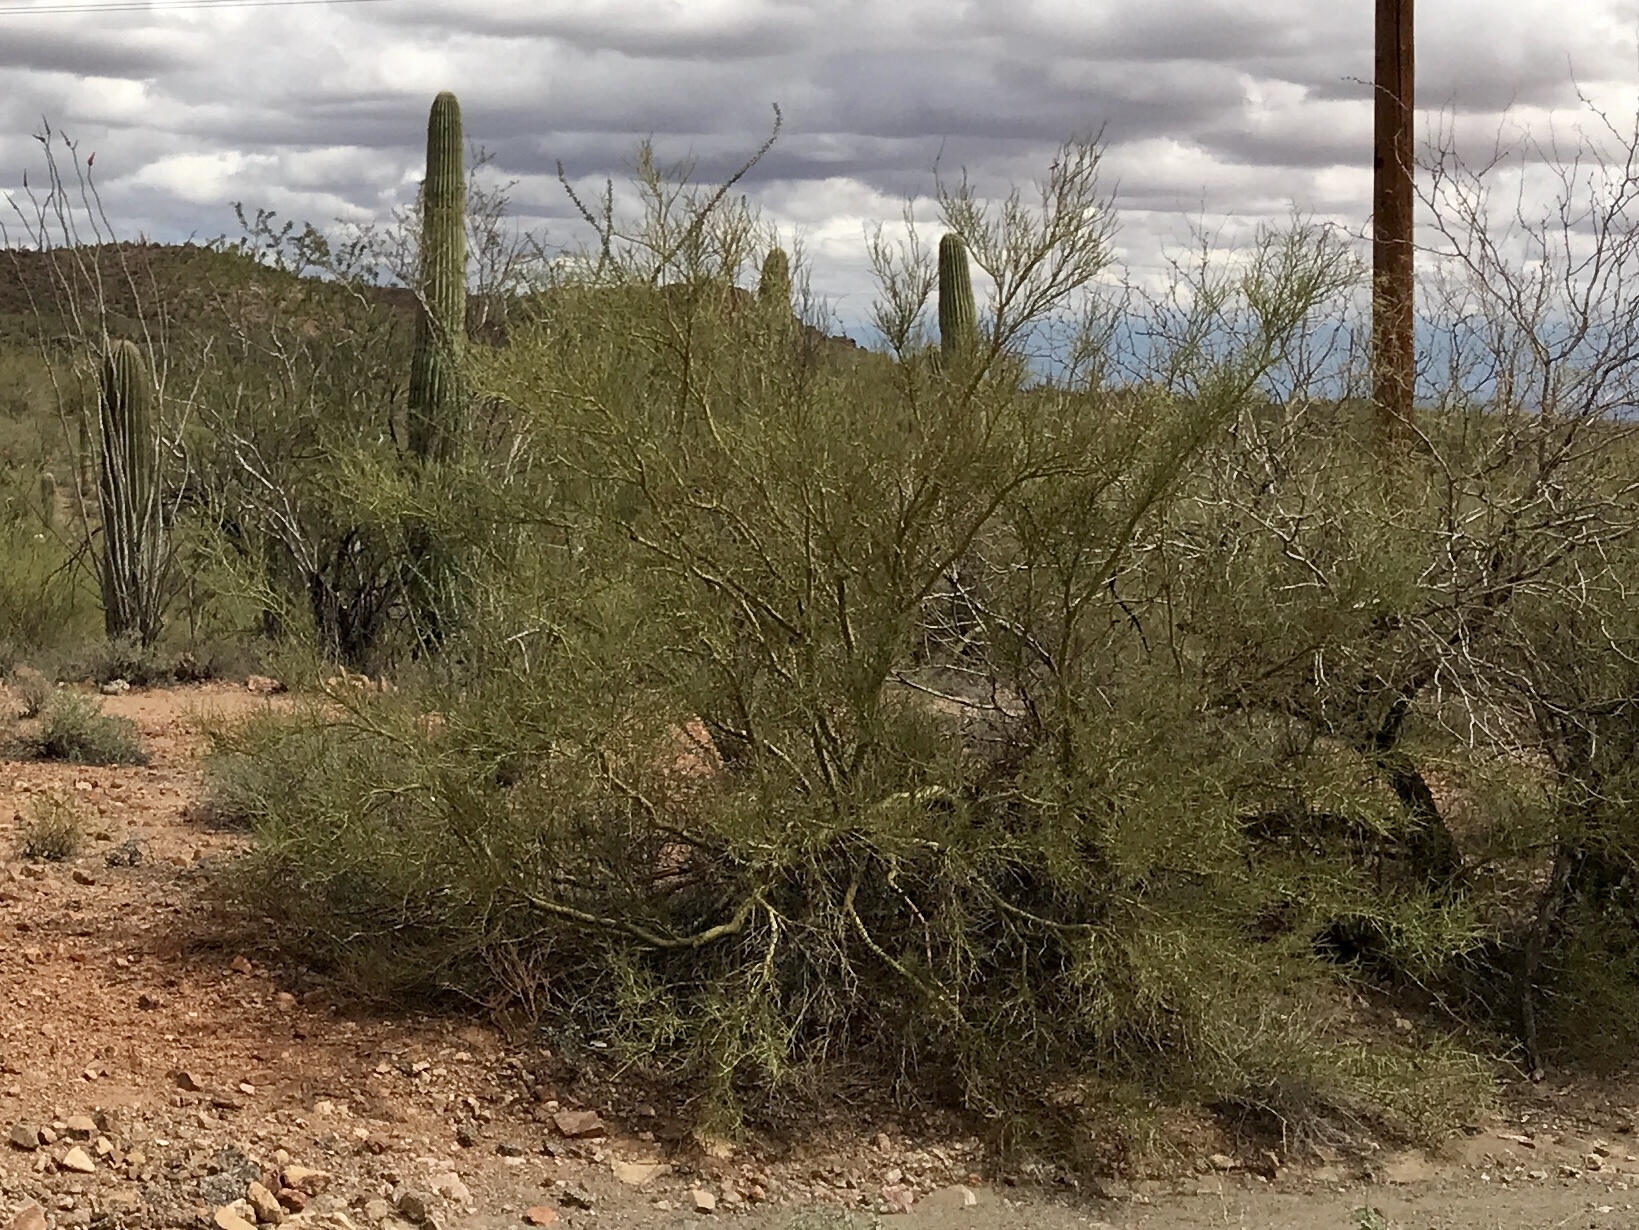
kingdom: Plantae
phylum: Tracheophyta
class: Magnoliopsida
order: Fabales
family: Fabaceae
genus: Parkinsonia
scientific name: Parkinsonia microphylla
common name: Yellow paloverde
